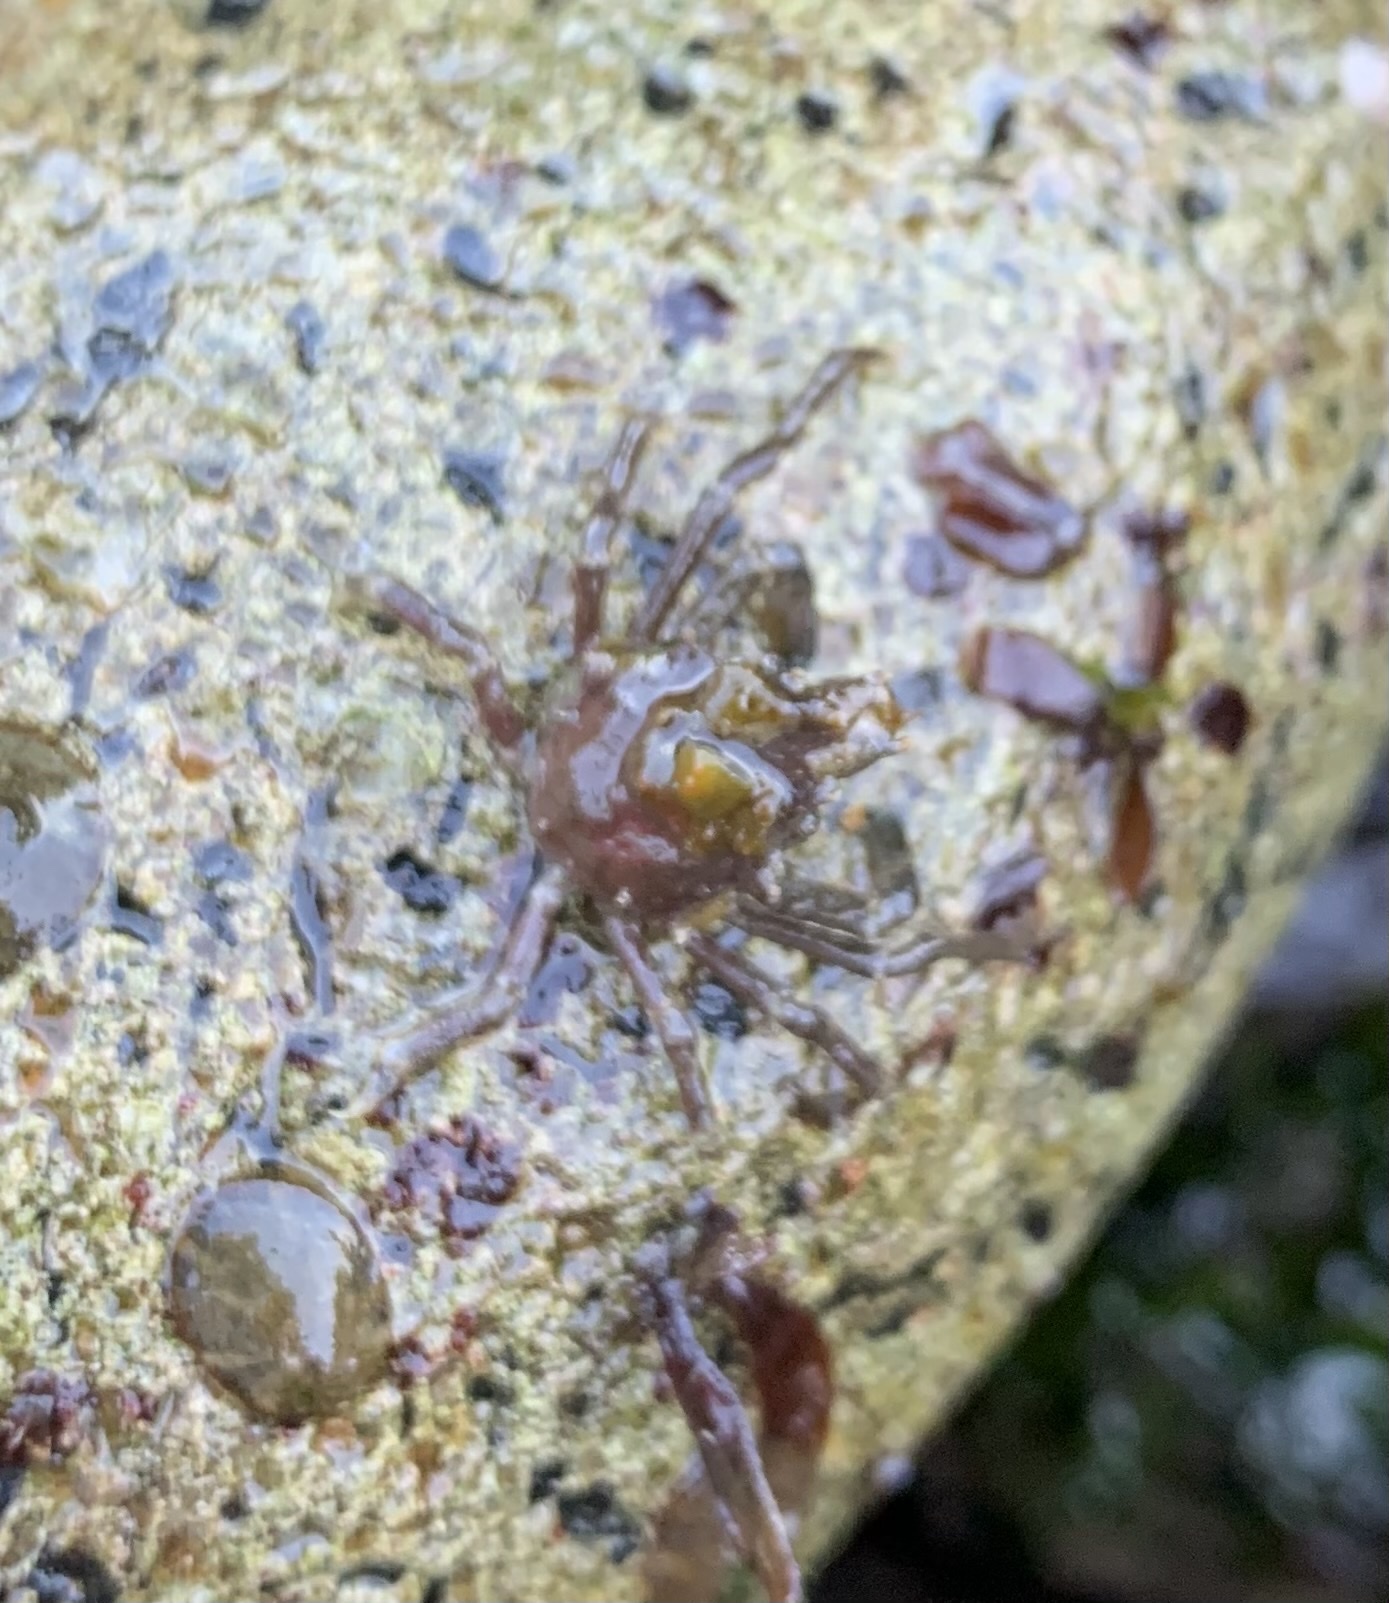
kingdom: Animalia
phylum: Arthropoda
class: Malacostraca
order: Decapoda
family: Epialtidae
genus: Pugettia
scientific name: Pugettia gracilis
